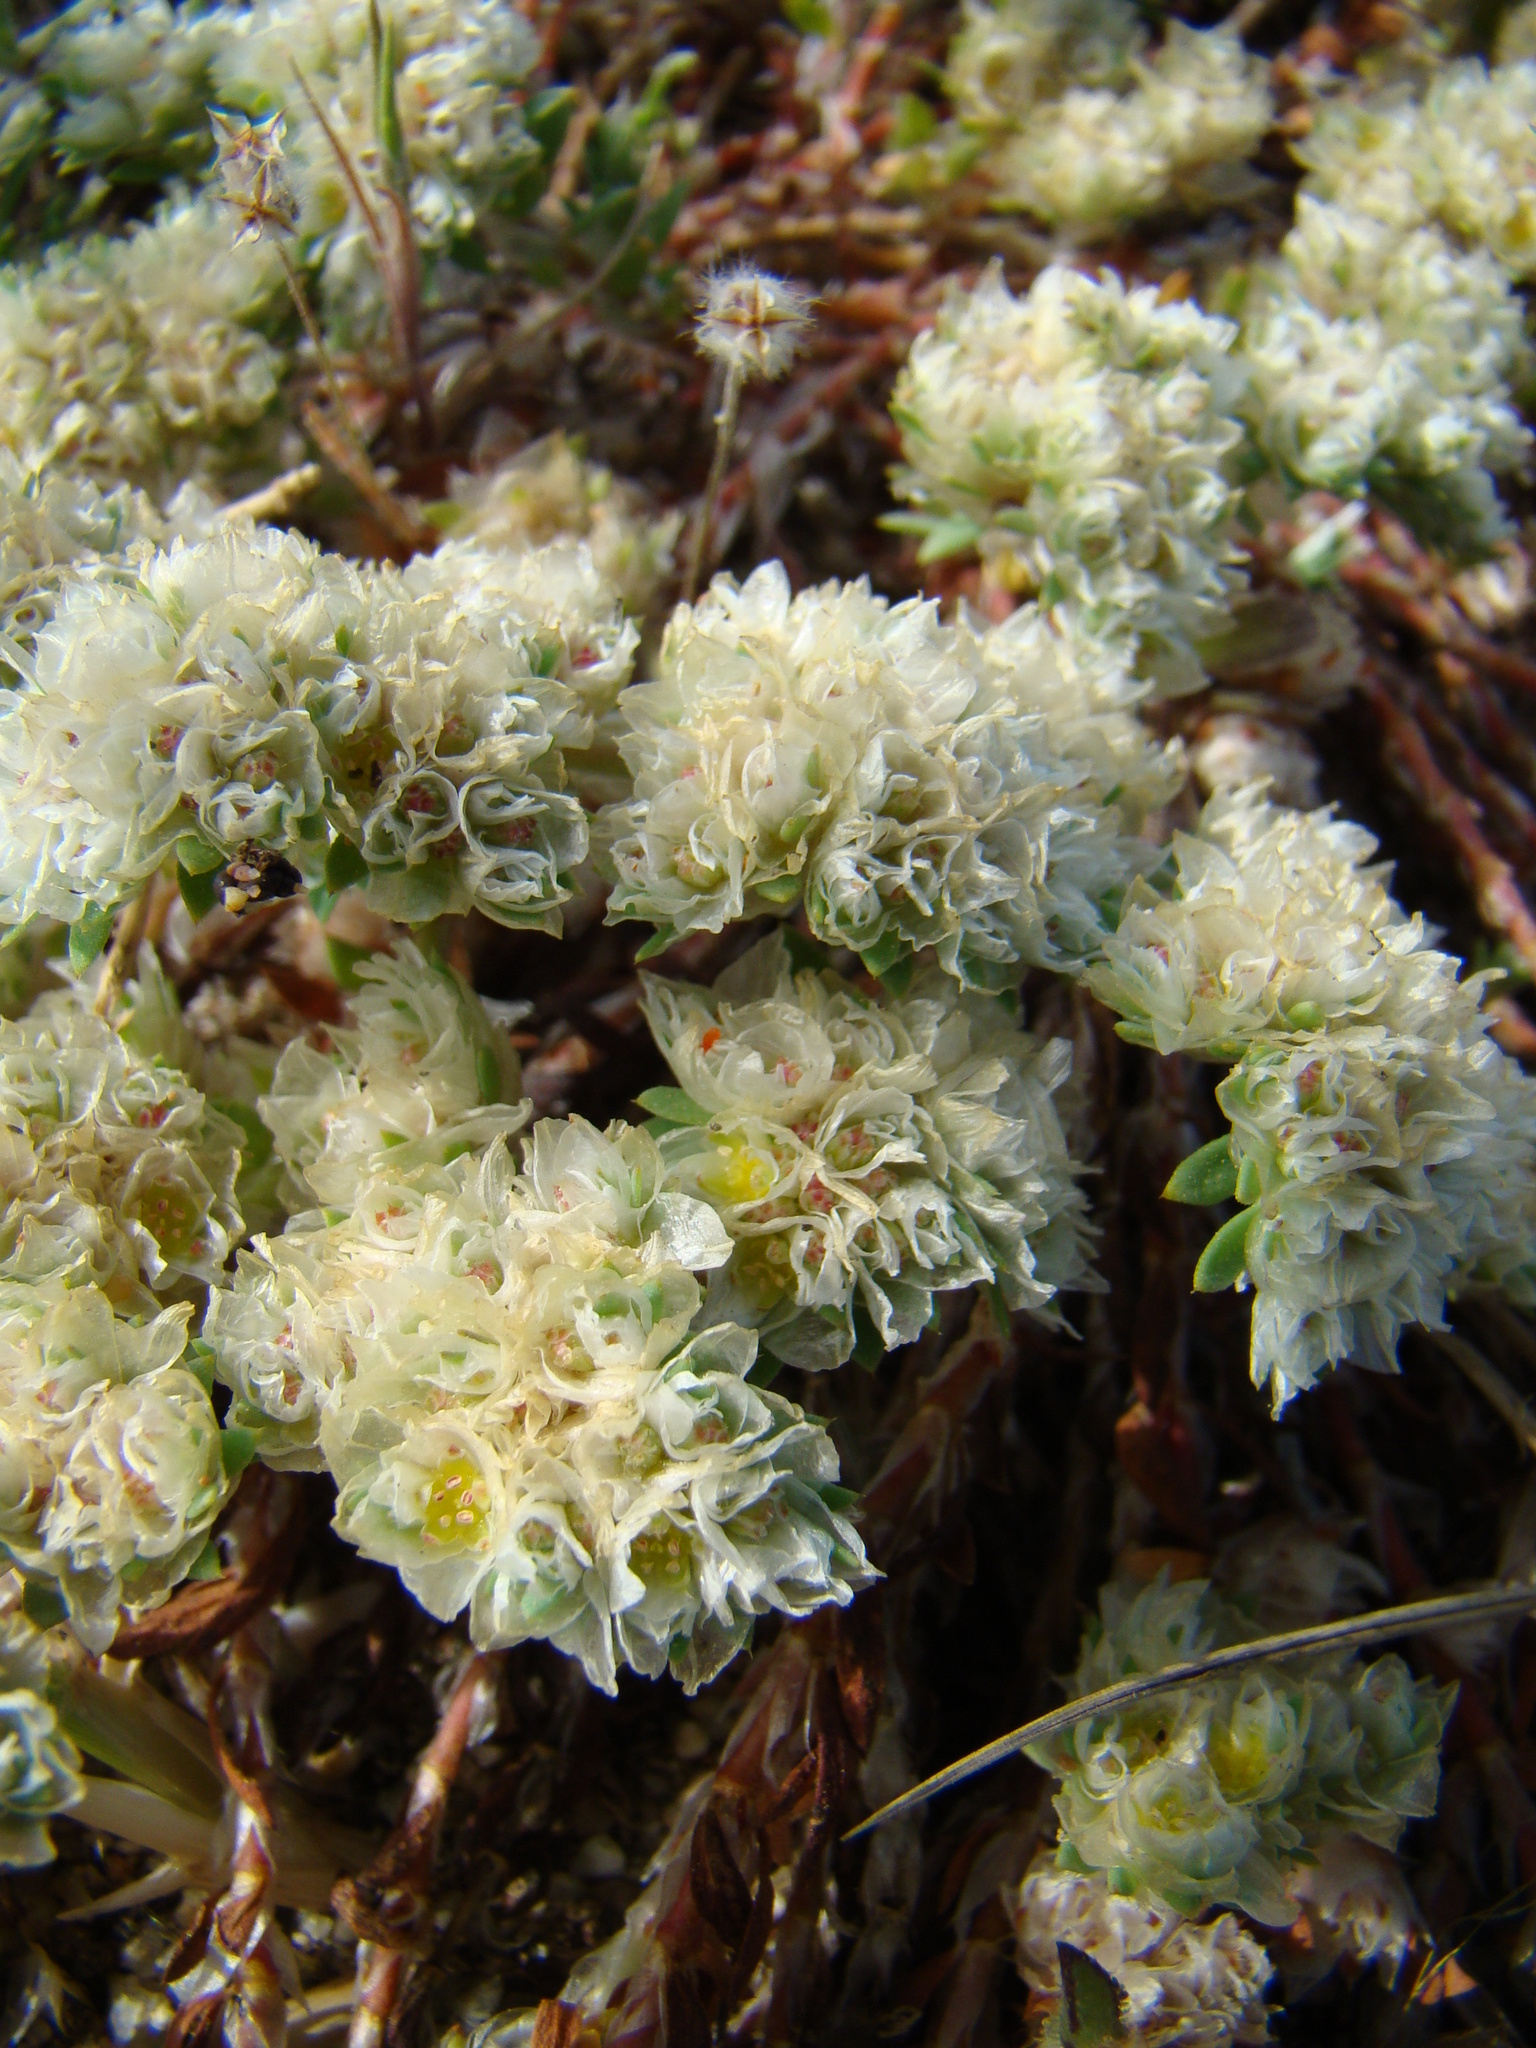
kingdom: Plantae
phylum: Tracheophyta
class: Magnoliopsida
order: Caryophyllales
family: Caryophyllaceae
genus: Paronychia
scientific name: Paronychia argentea
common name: Silver nailroot
